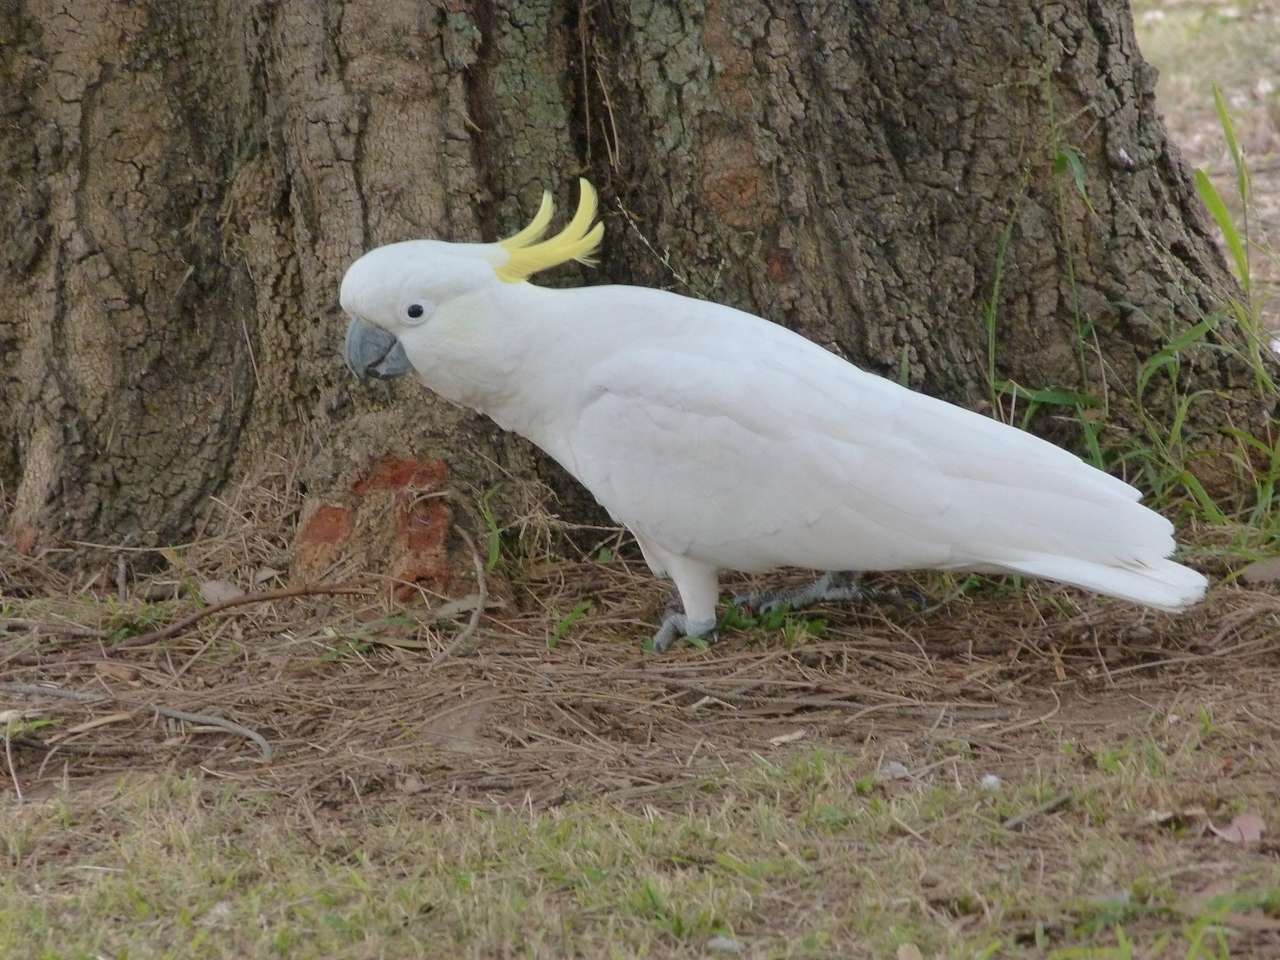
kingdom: Animalia
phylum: Chordata
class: Aves
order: Psittaciformes
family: Psittacidae
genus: Cacatua
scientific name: Cacatua galerita
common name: Sulphur-crested cockatoo
